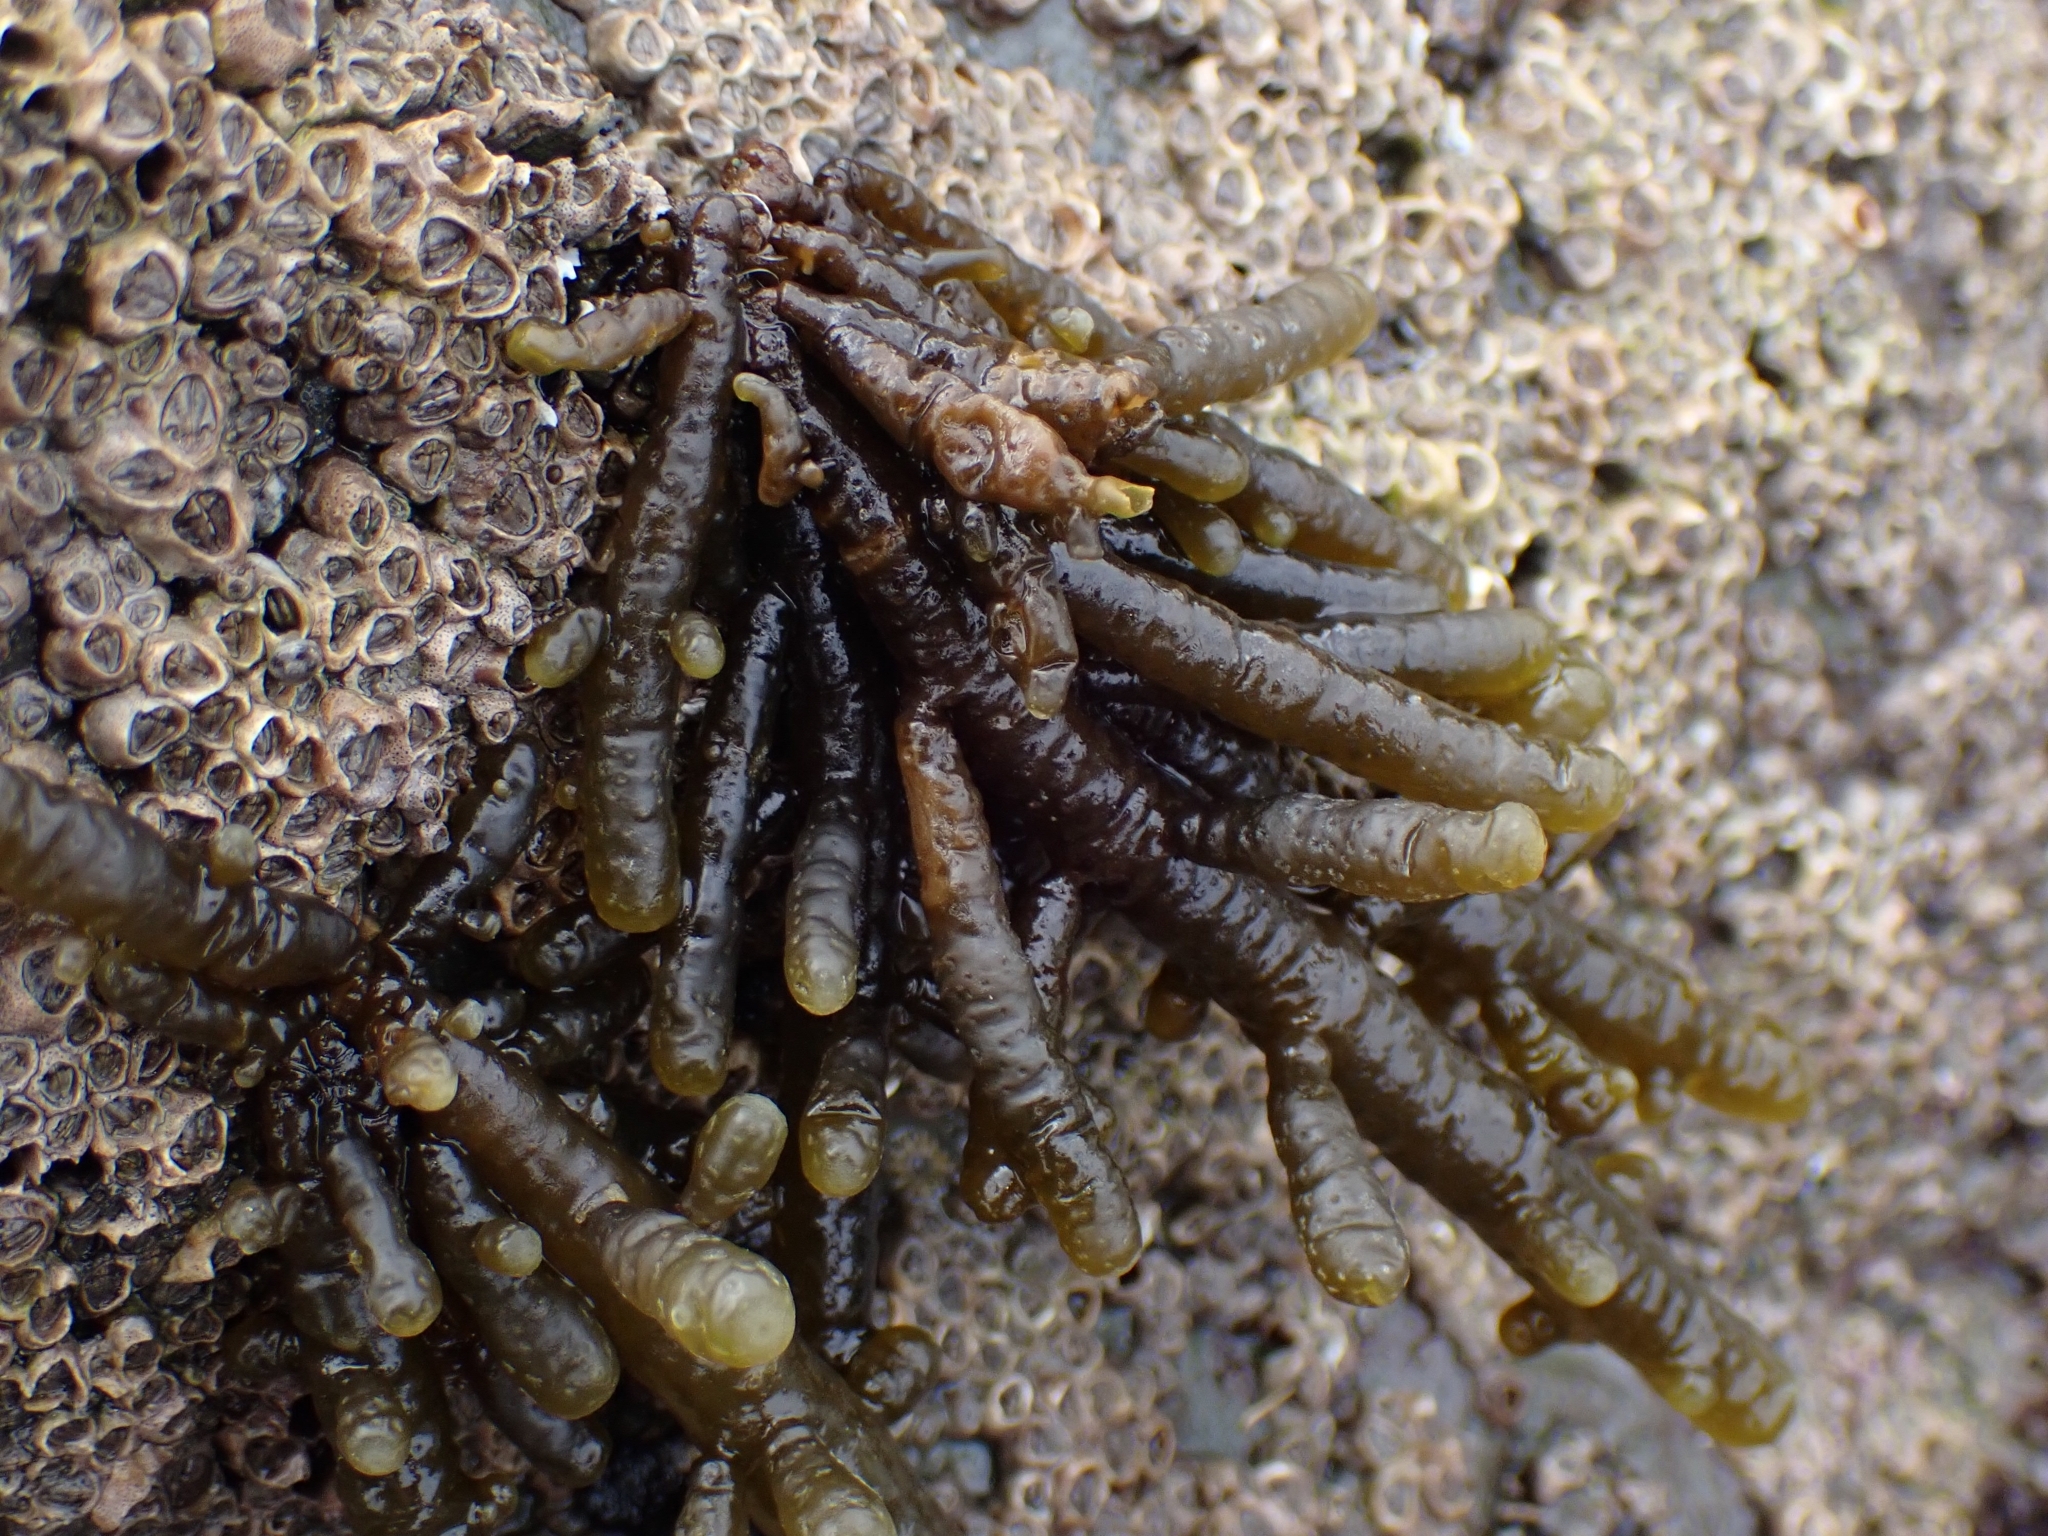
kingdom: Chromista
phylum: Ochrophyta
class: Phaeophyceae
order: Scytothamnales
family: Splachnidiaceae
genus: Splachnidium
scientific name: Splachnidium rugosum
